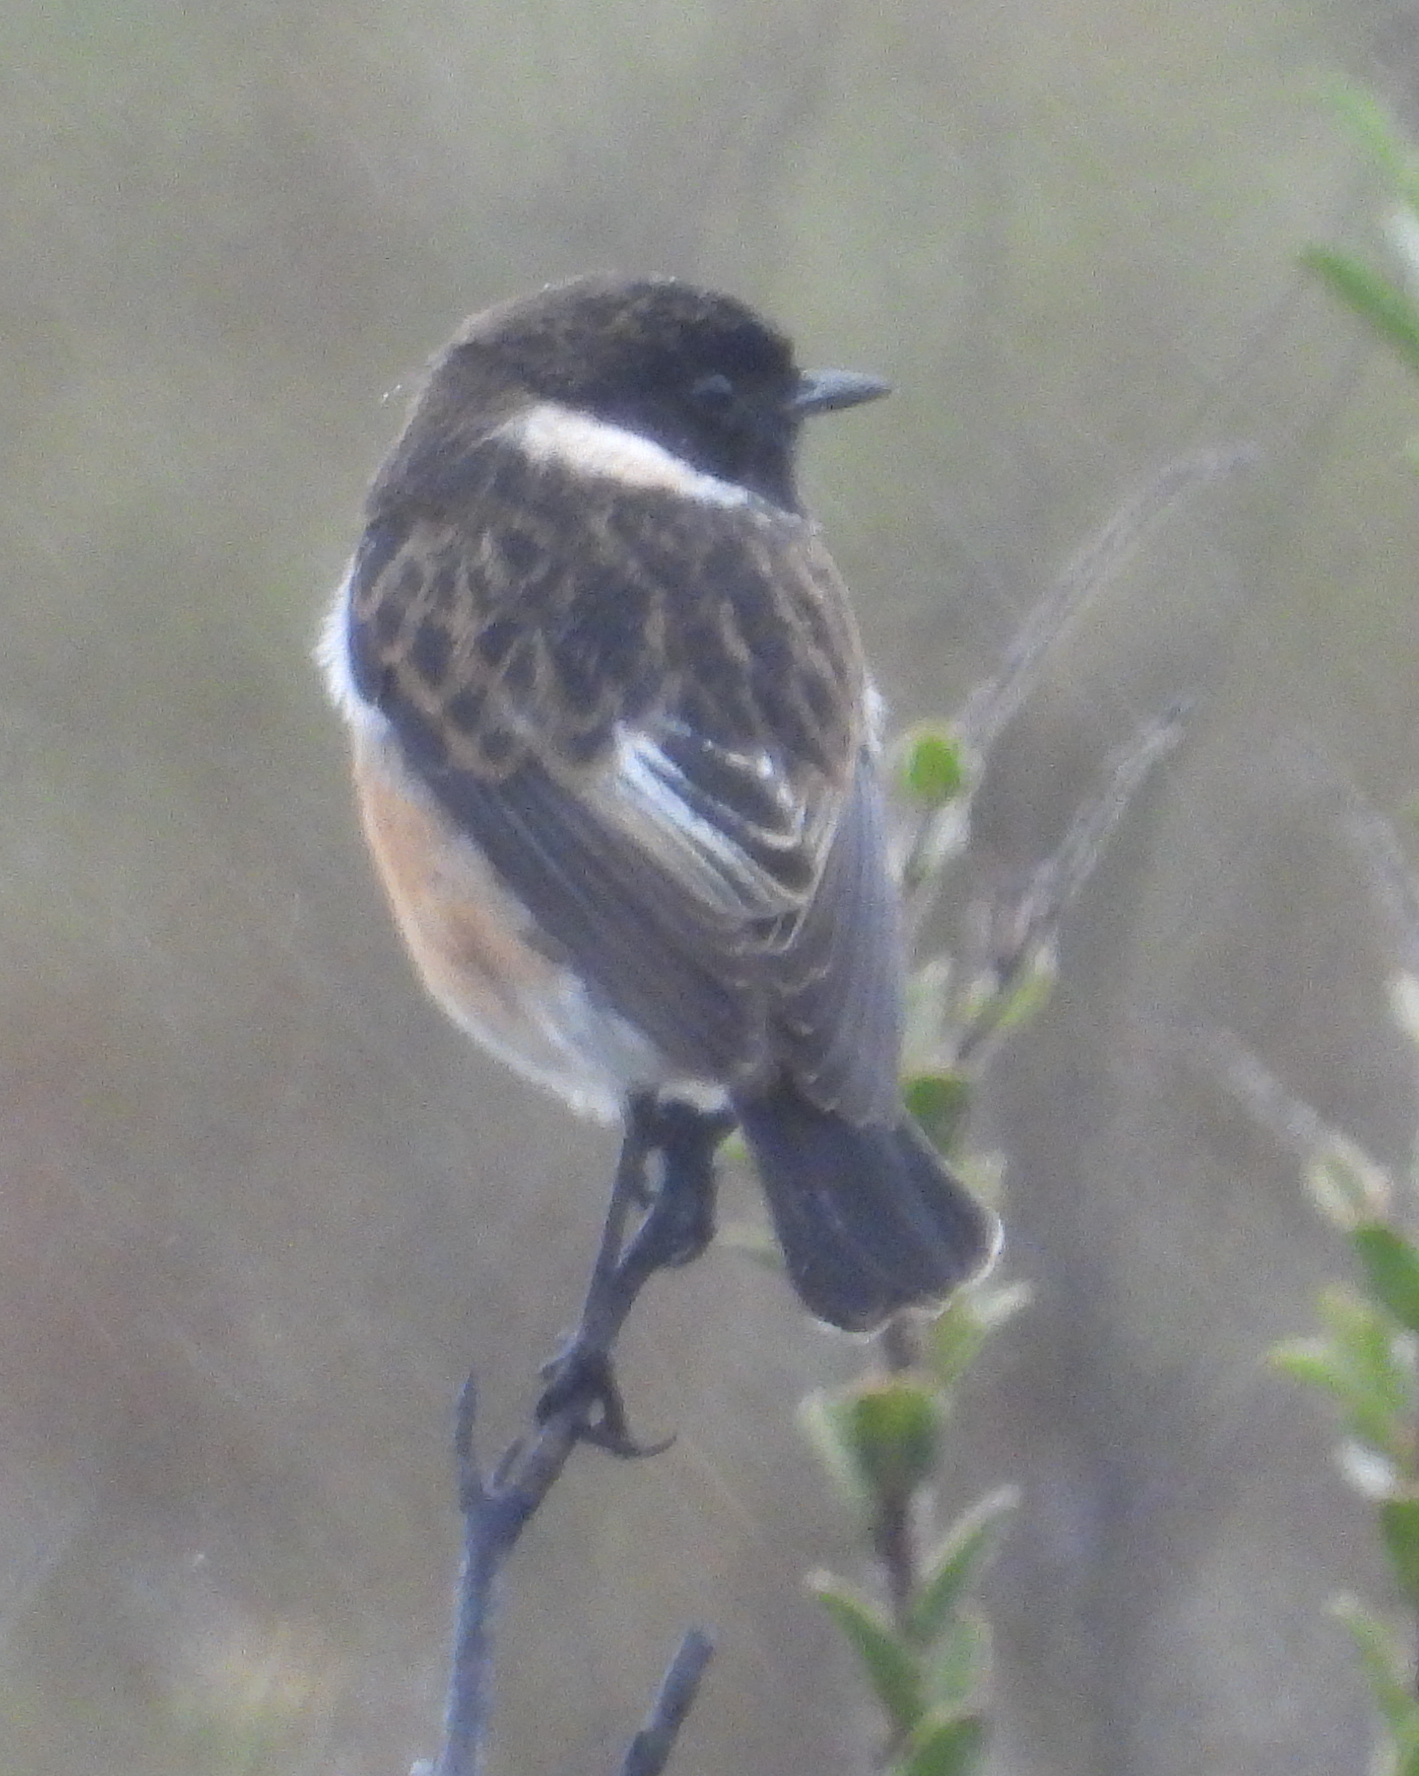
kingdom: Animalia
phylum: Chordata
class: Aves
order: Passeriformes
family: Muscicapidae
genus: Saxicola
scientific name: Saxicola torquatus
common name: African stonechat
